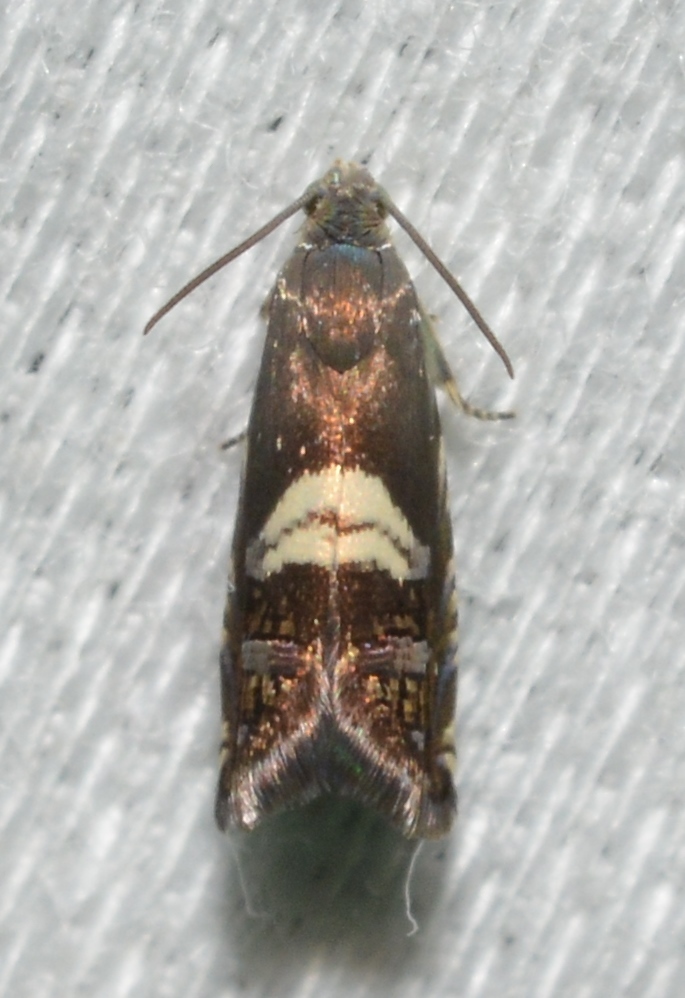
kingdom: Animalia
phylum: Arthropoda
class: Insecta
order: Lepidoptera
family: Tortricidae
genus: Grapholita
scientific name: Grapholita interstinctana
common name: Clover head caterpillar moth
